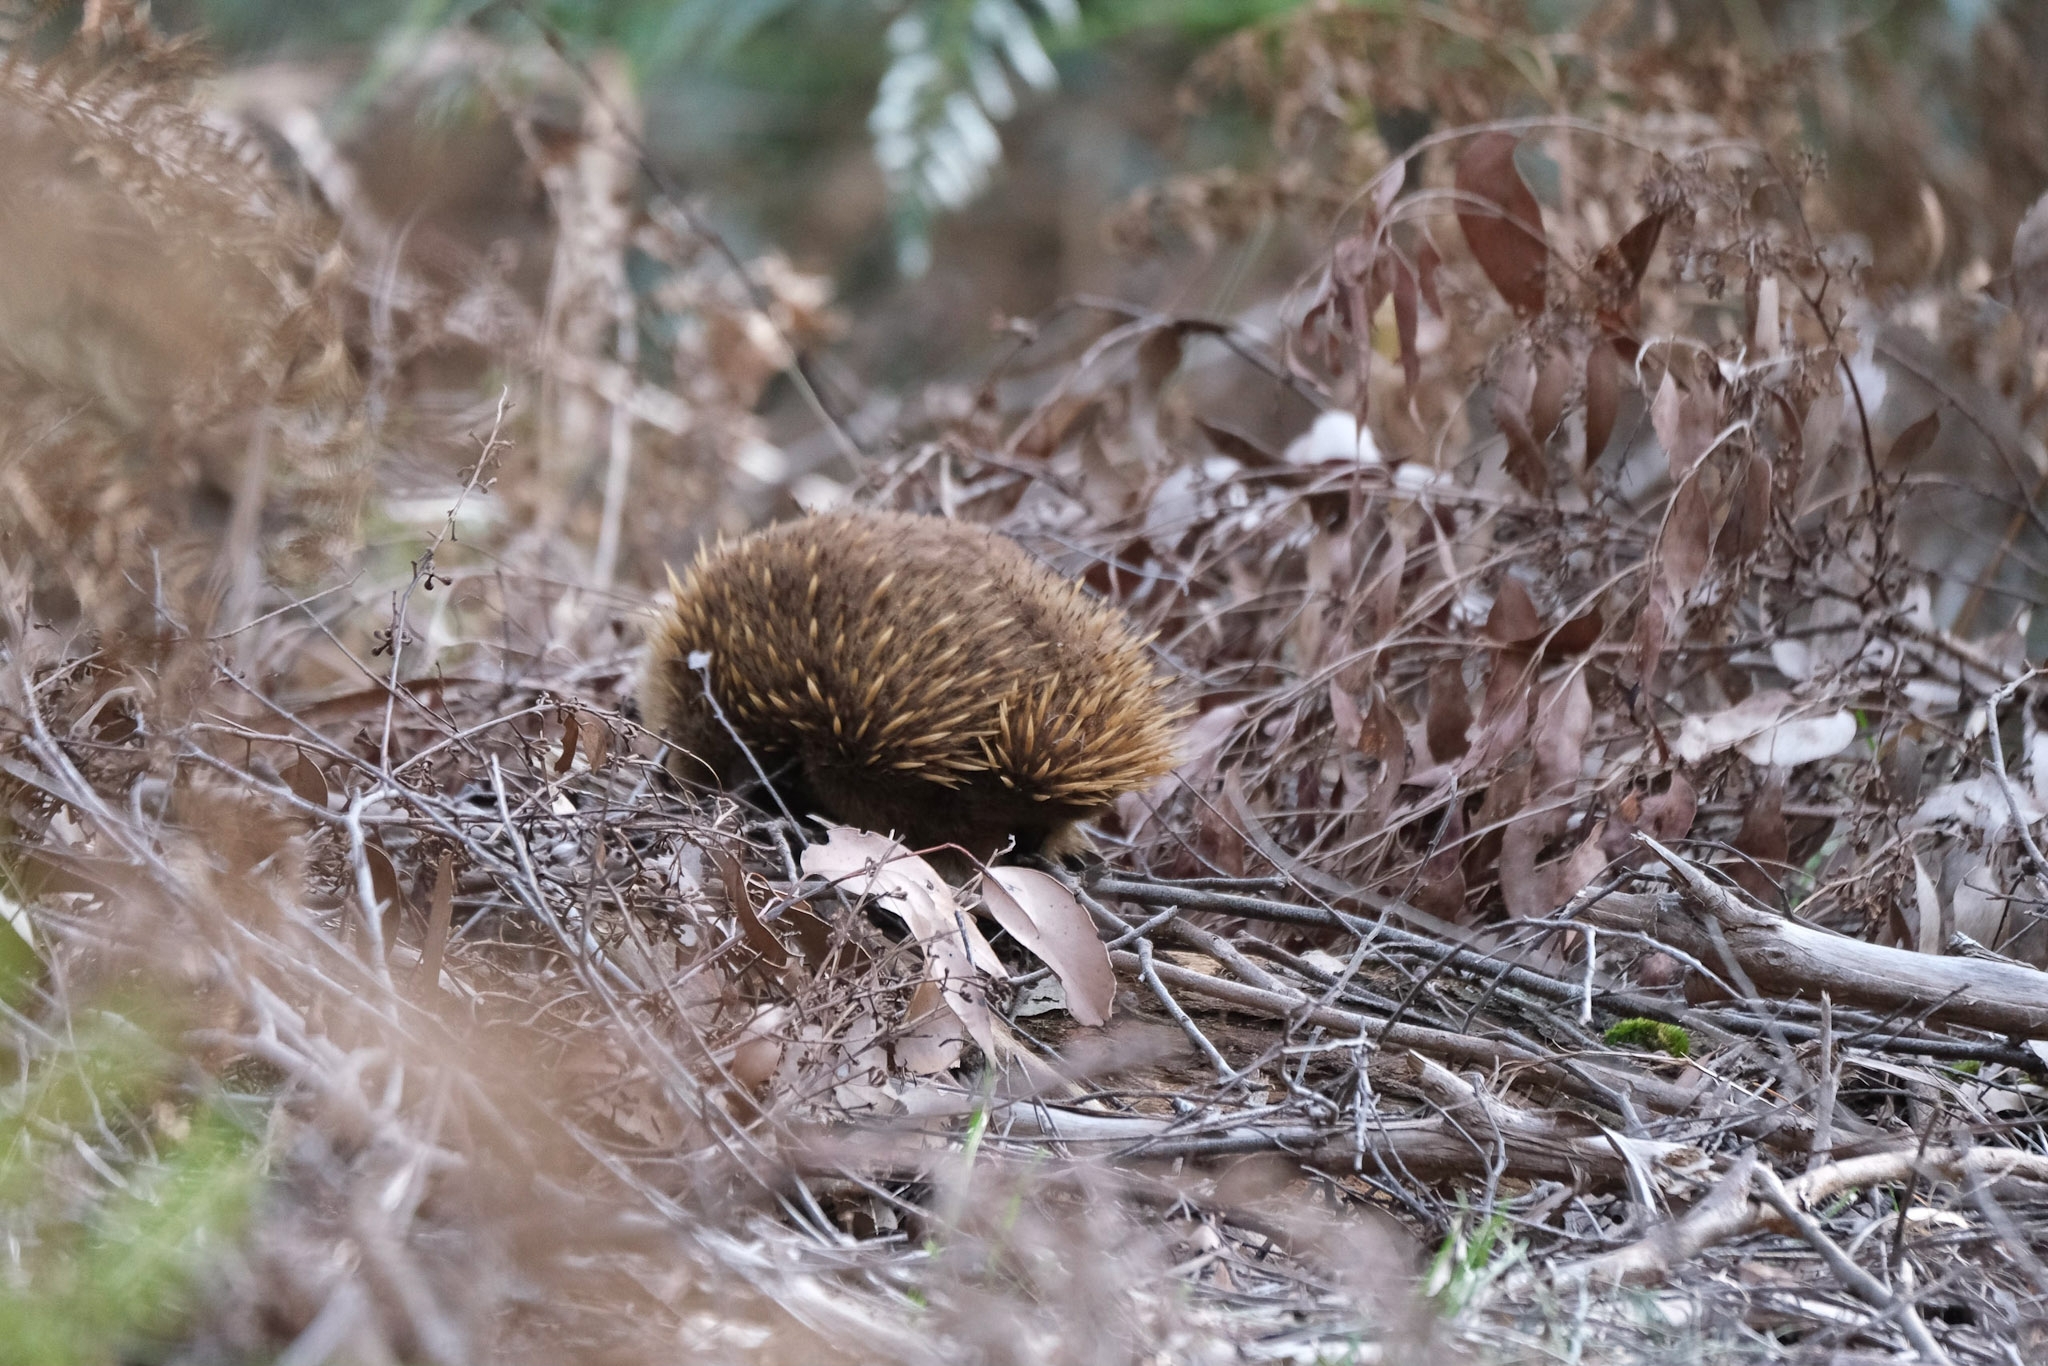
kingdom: Animalia
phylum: Chordata
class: Mammalia
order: Monotremata
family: Tachyglossidae
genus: Tachyglossus
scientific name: Tachyglossus aculeatus
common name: Short-beaked echidna
